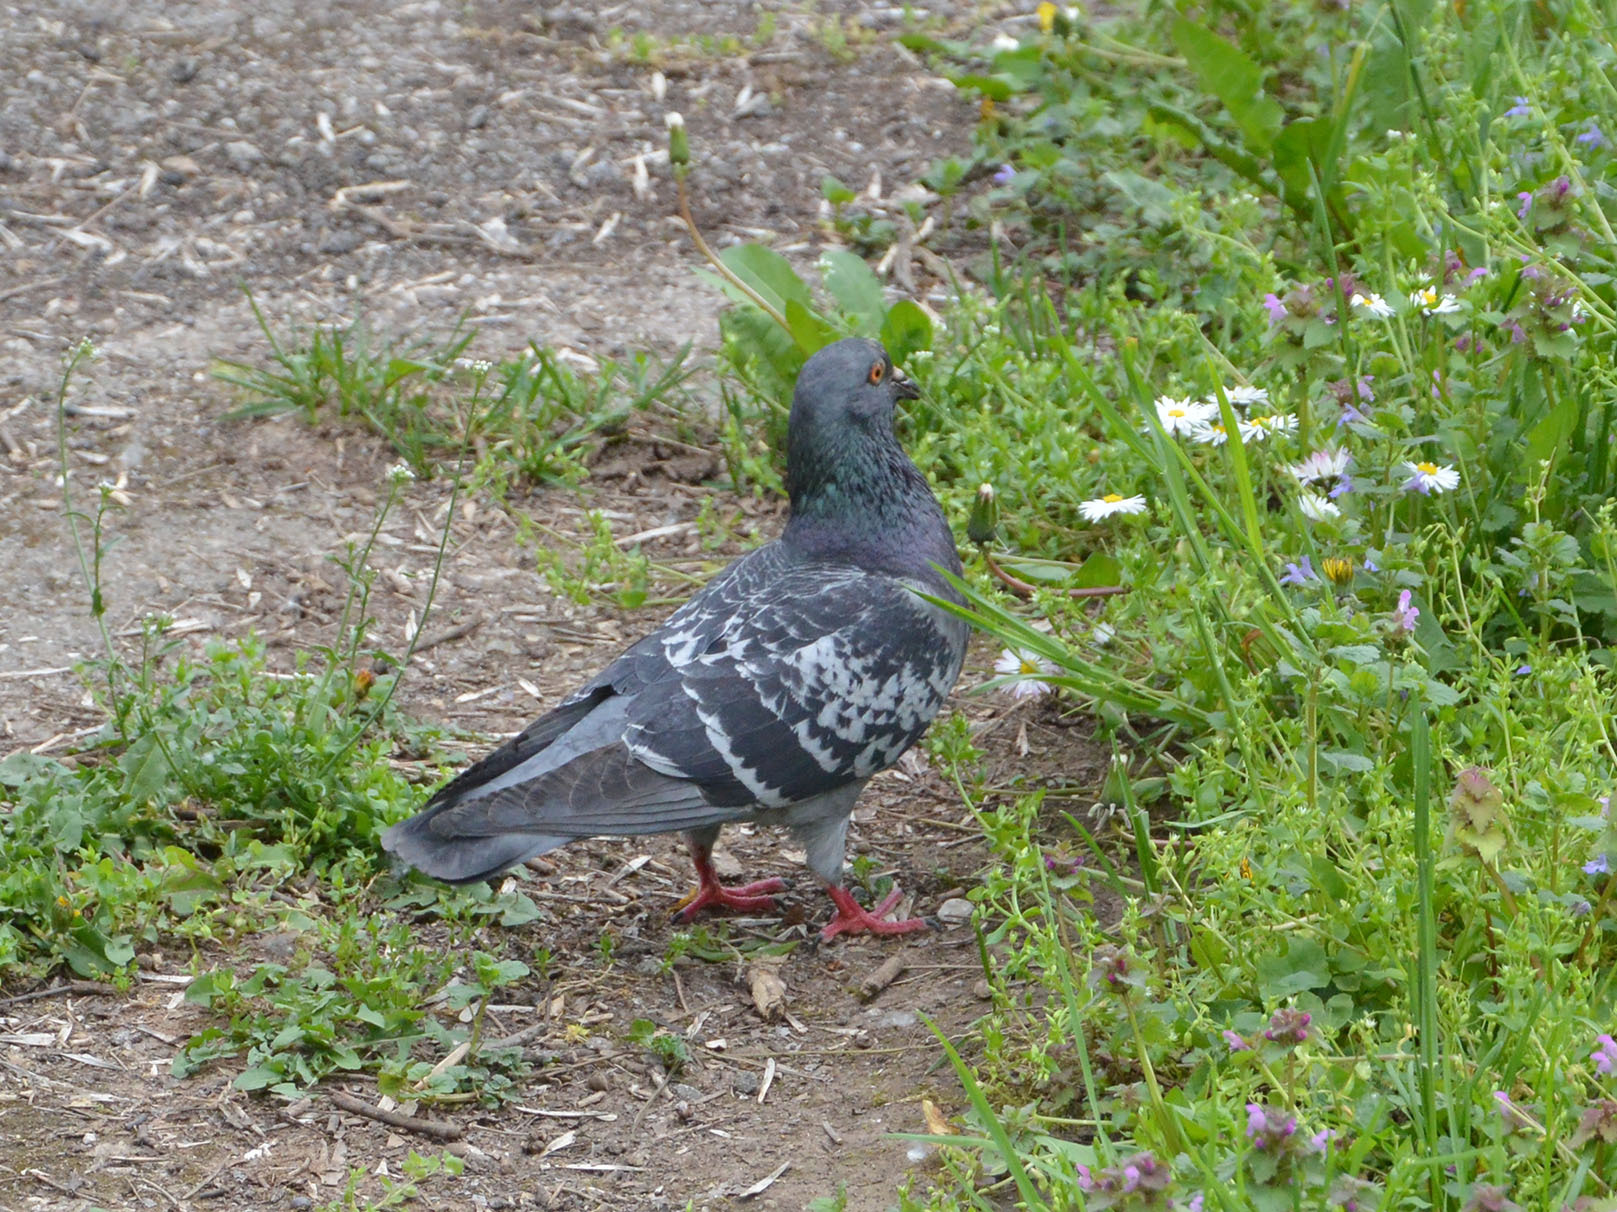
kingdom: Animalia
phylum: Chordata
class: Aves
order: Columbiformes
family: Columbidae
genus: Columba
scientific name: Columba livia
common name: Rock pigeon
